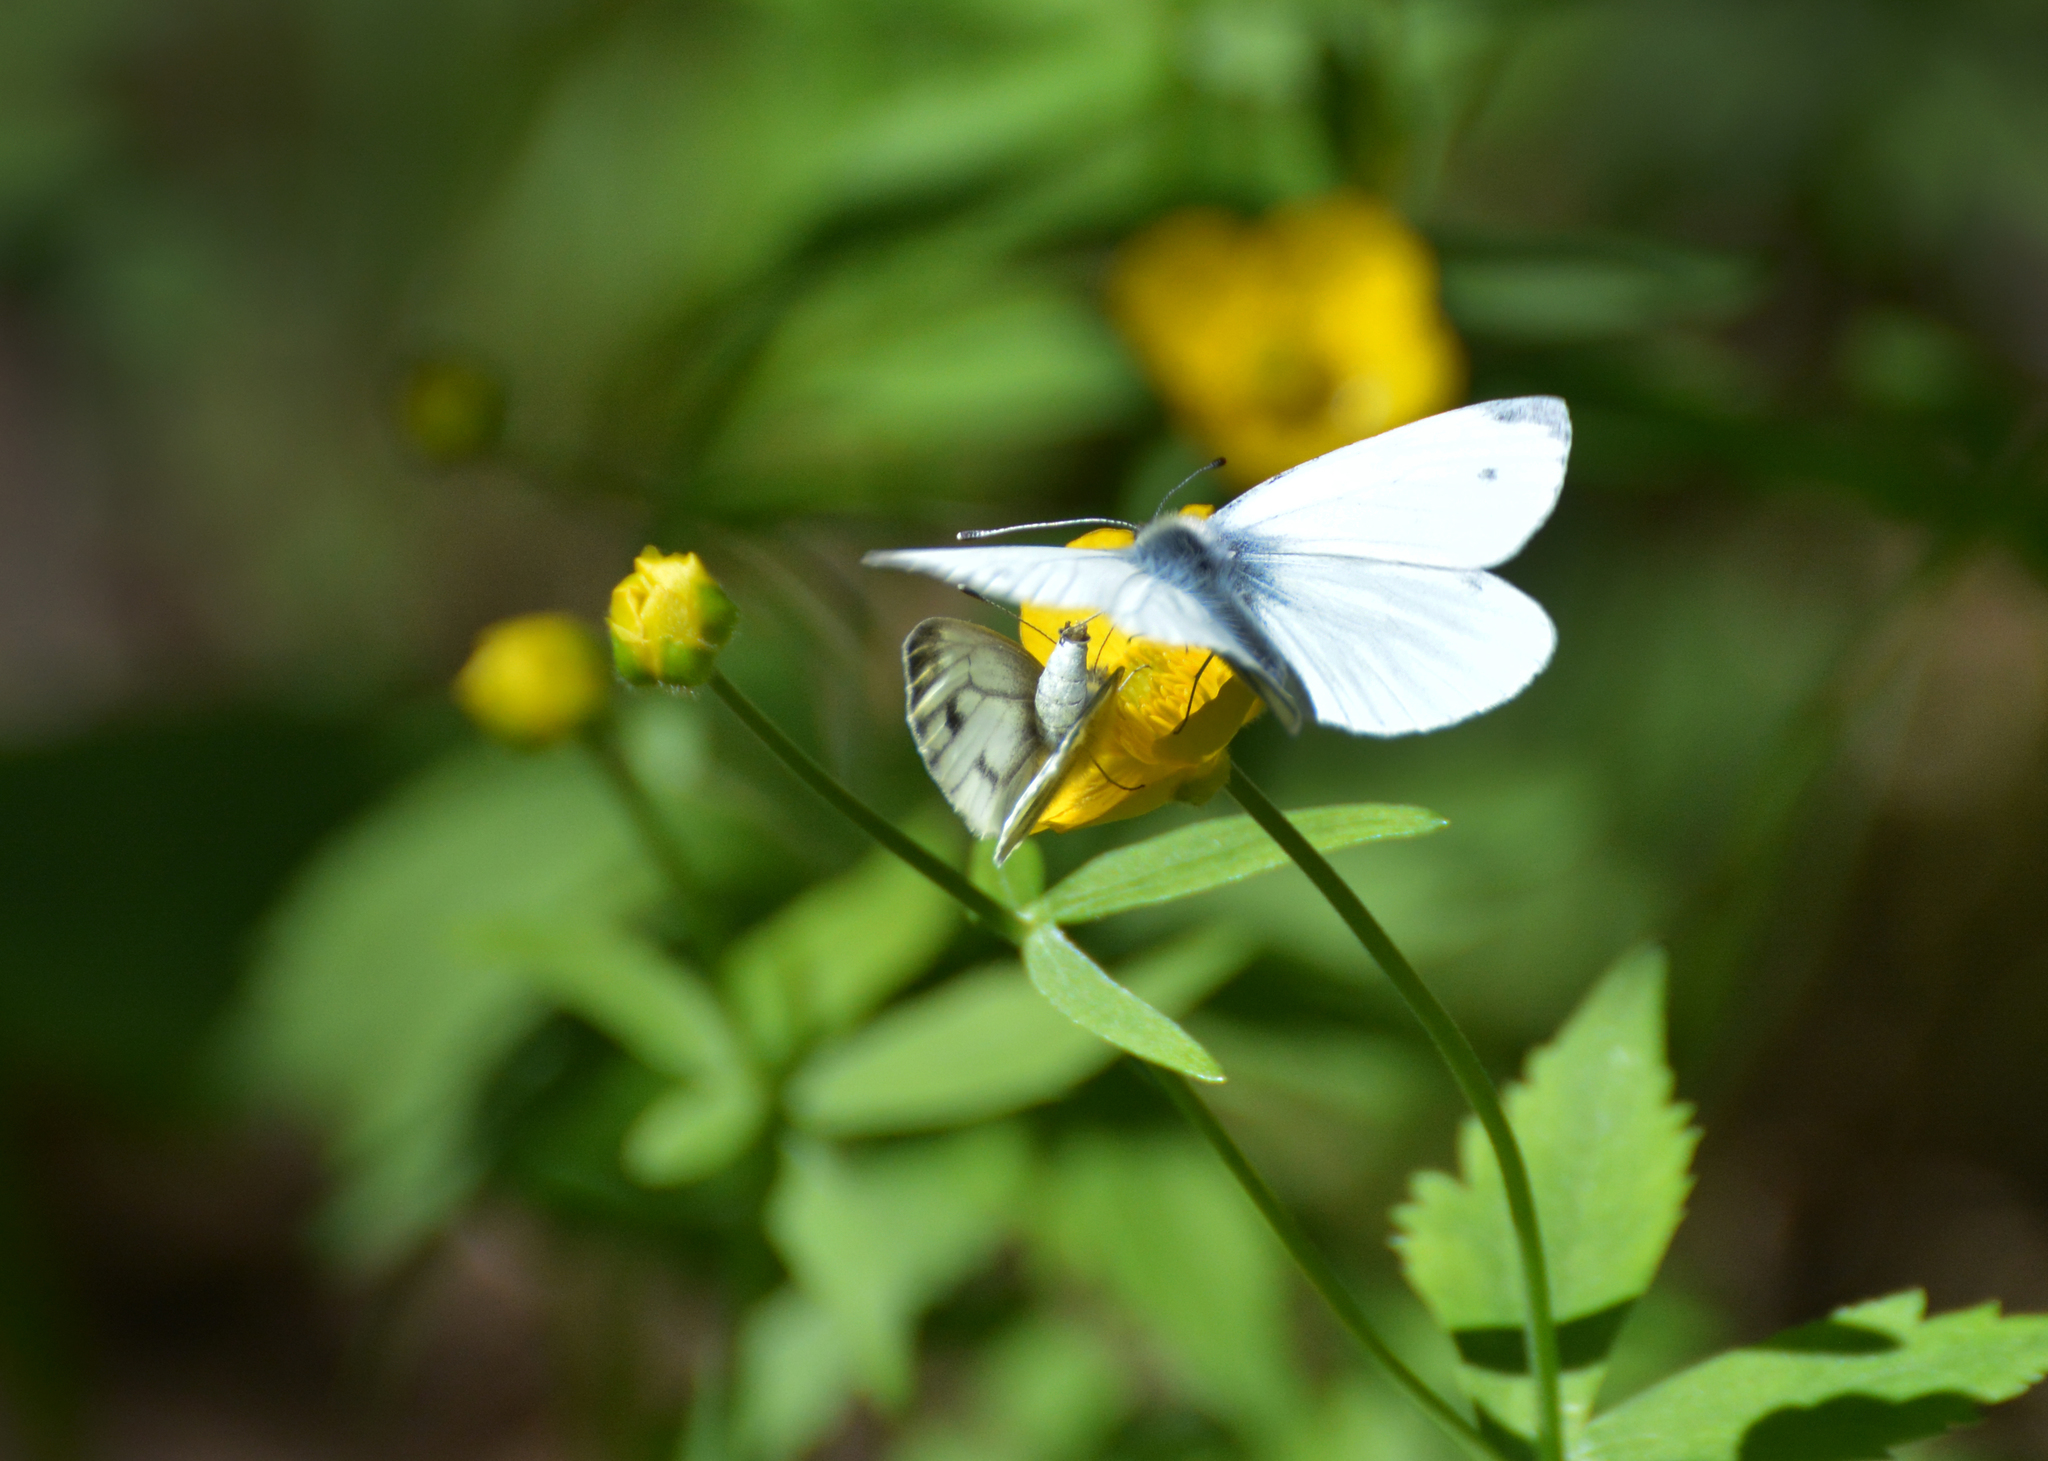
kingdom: Animalia
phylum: Arthropoda
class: Insecta
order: Lepidoptera
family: Pieridae
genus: Pieris
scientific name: Pieris napi
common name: Green-veined white
